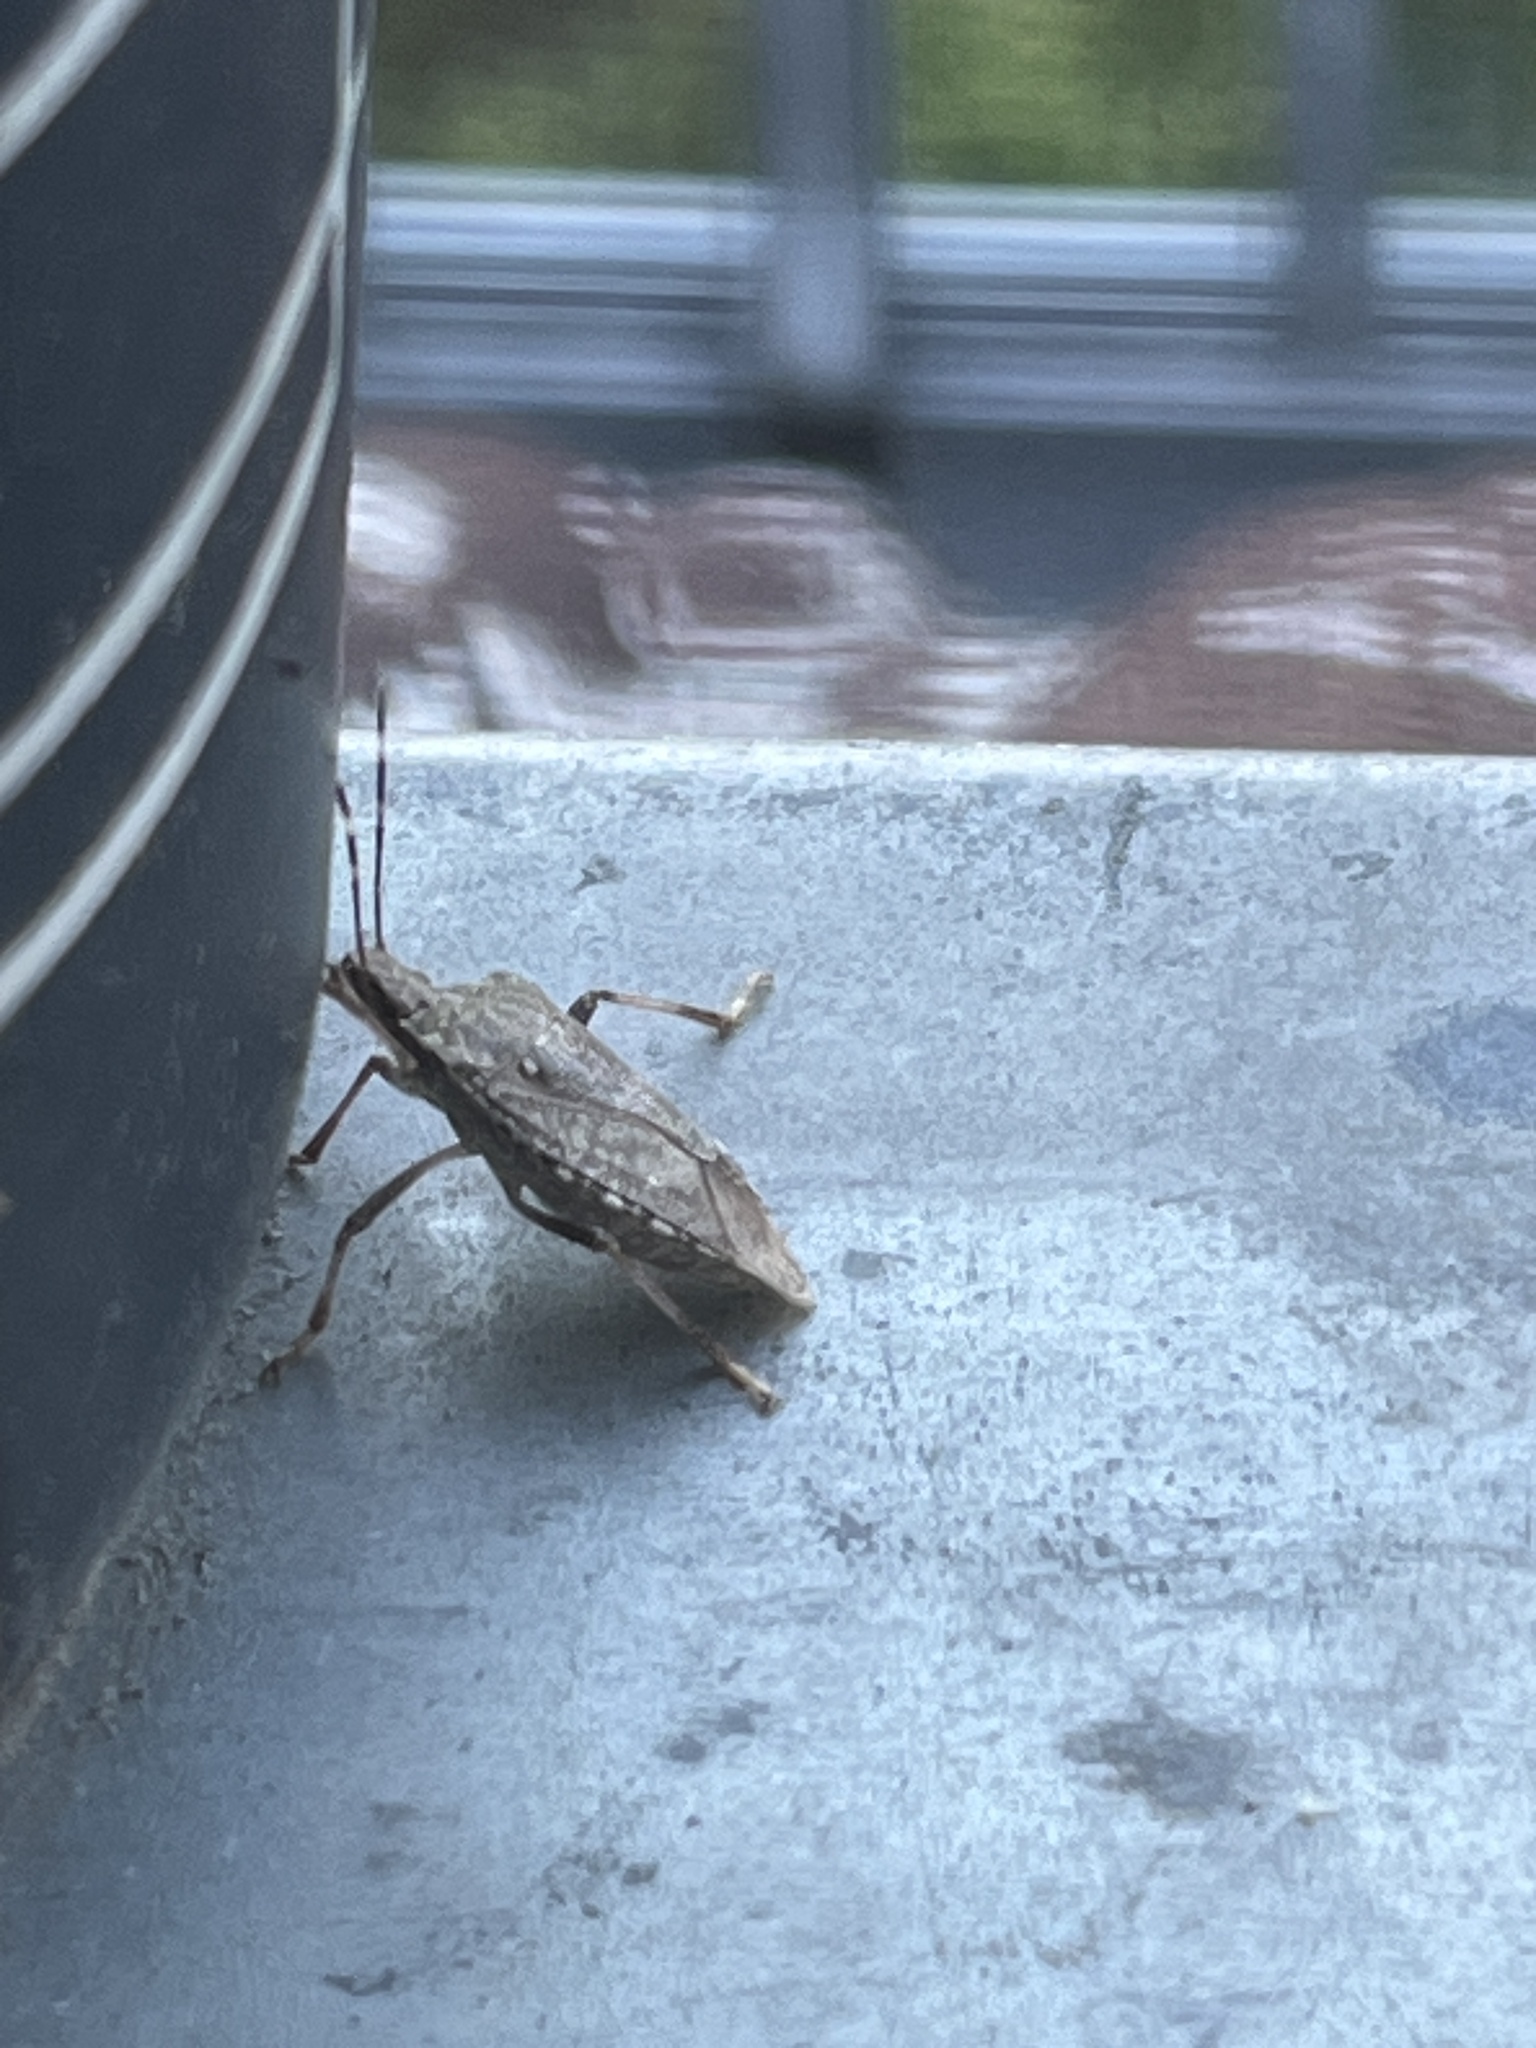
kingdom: Animalia
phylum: Arthropoda
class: Insecta
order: Hemiptera
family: Pentatomidae
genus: Halyomorpha
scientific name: Halyomorpha halys
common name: Brown marmorated stink bug
